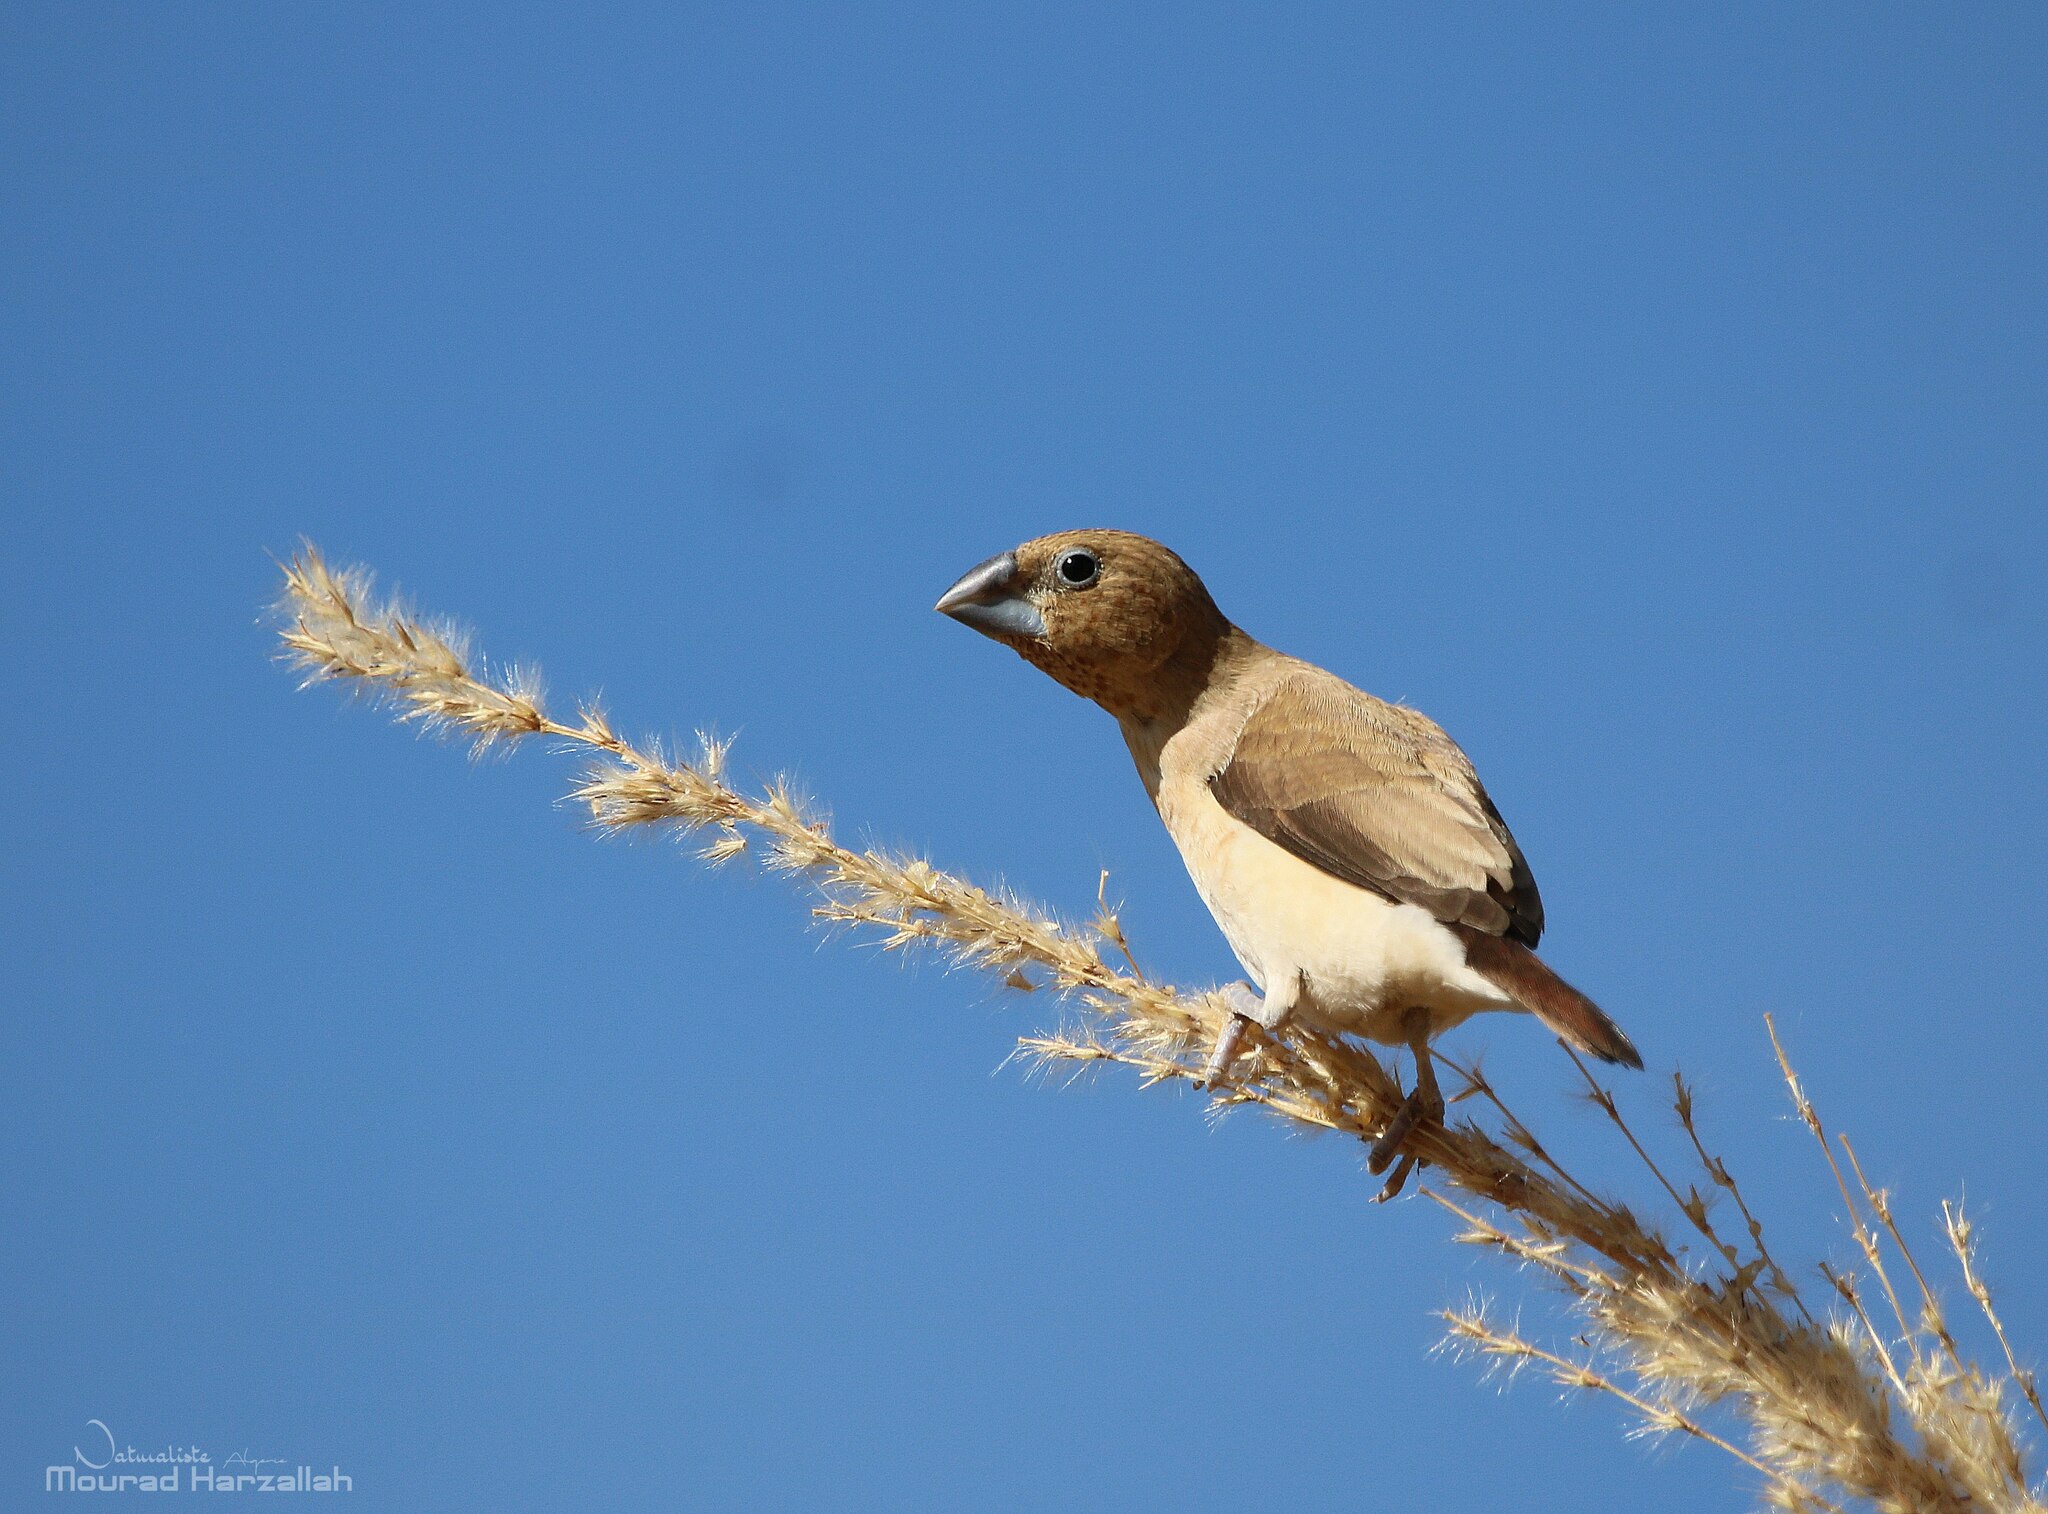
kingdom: Animalia
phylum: Chordata
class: Aves
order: Passeriformes
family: Estrildidae
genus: Euodice
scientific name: Euodice cantans
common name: African silverbill
